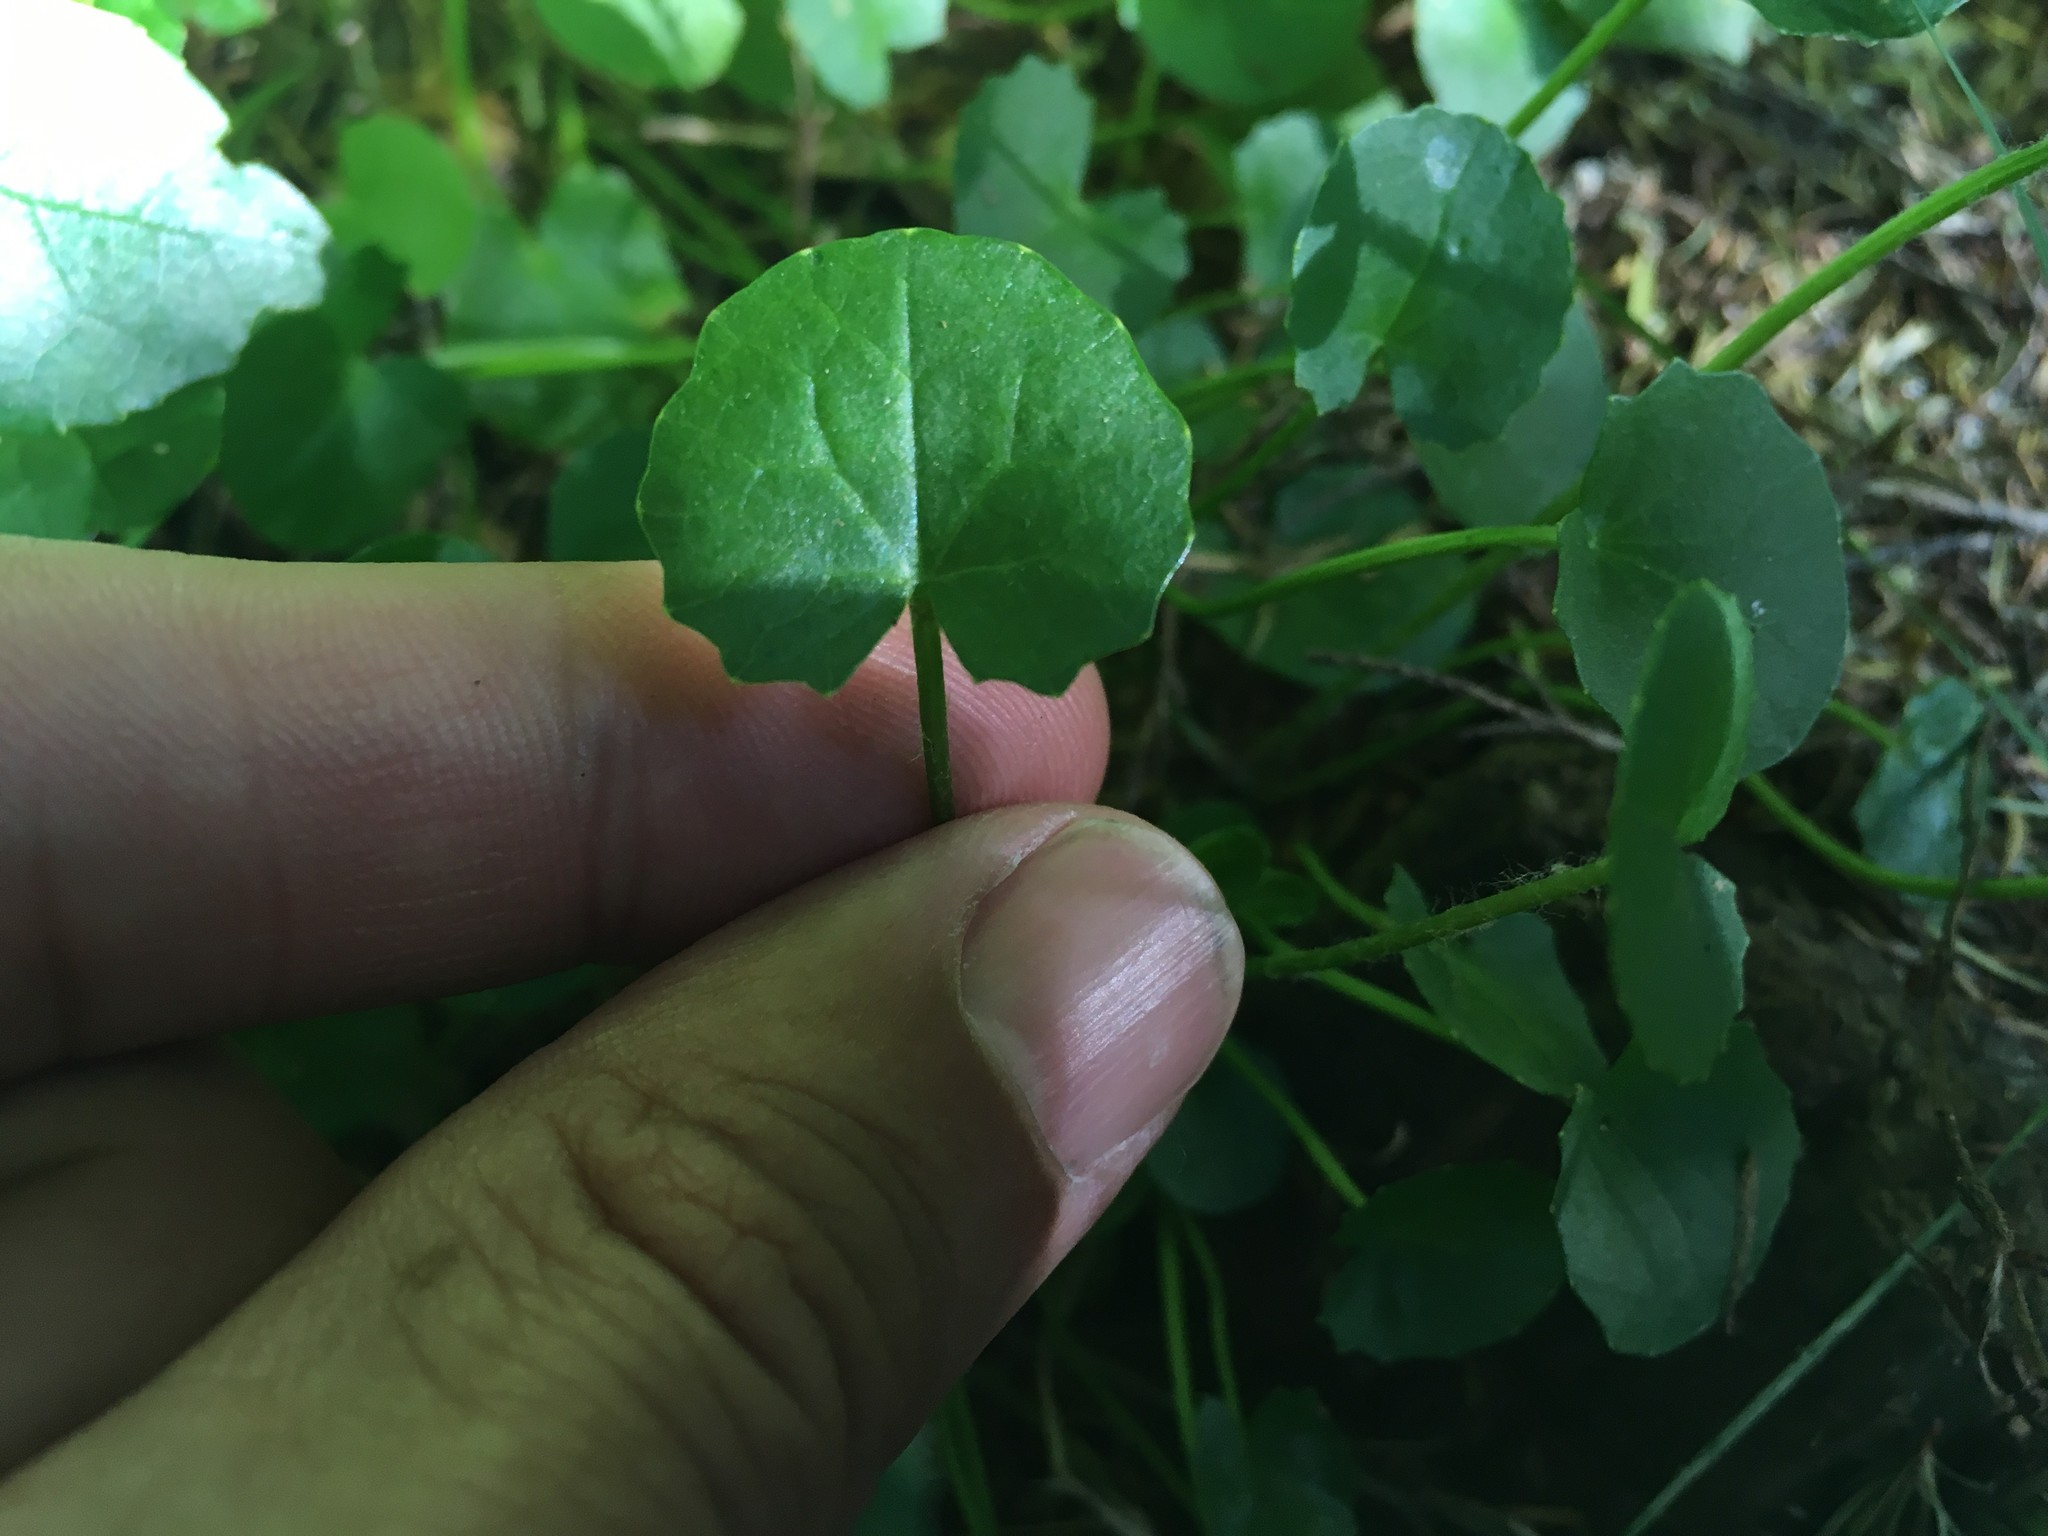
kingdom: Plantae
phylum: Tracheophyta
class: Magnoliopsida
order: Apiales
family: Apiaceae
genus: Centella
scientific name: Centella uniflora
